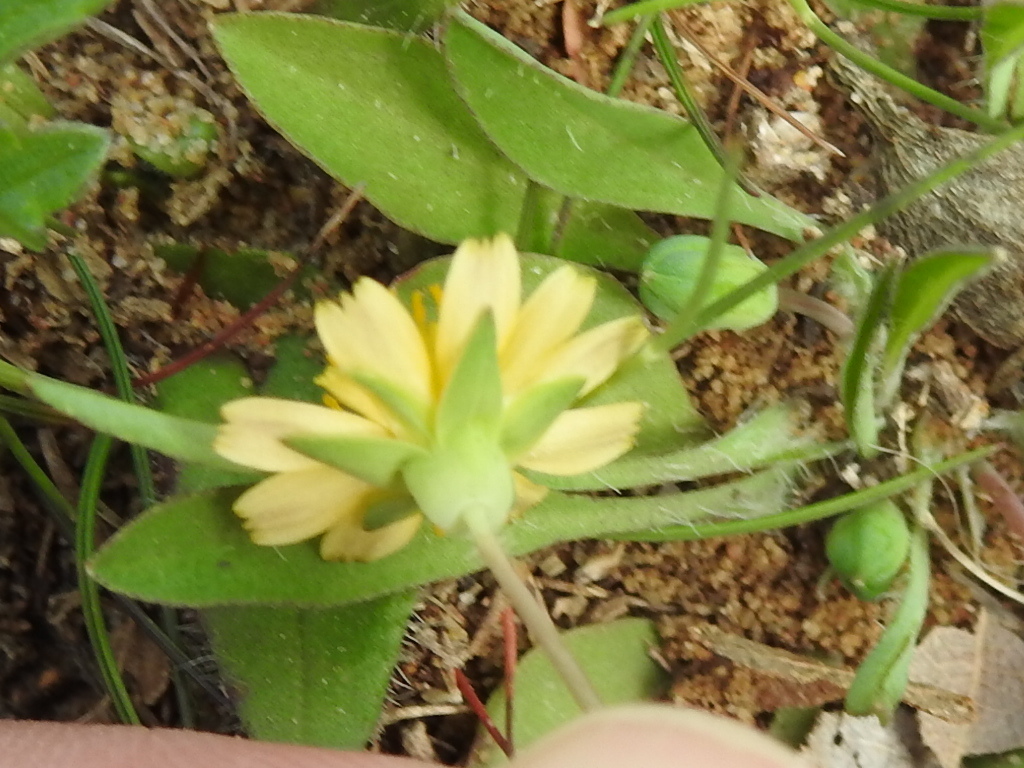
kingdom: Plantae
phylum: Tracheophyta
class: Magnoliopsida
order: Asterales
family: Asteraceae
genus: Krigia
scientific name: Krigia occidentalis
